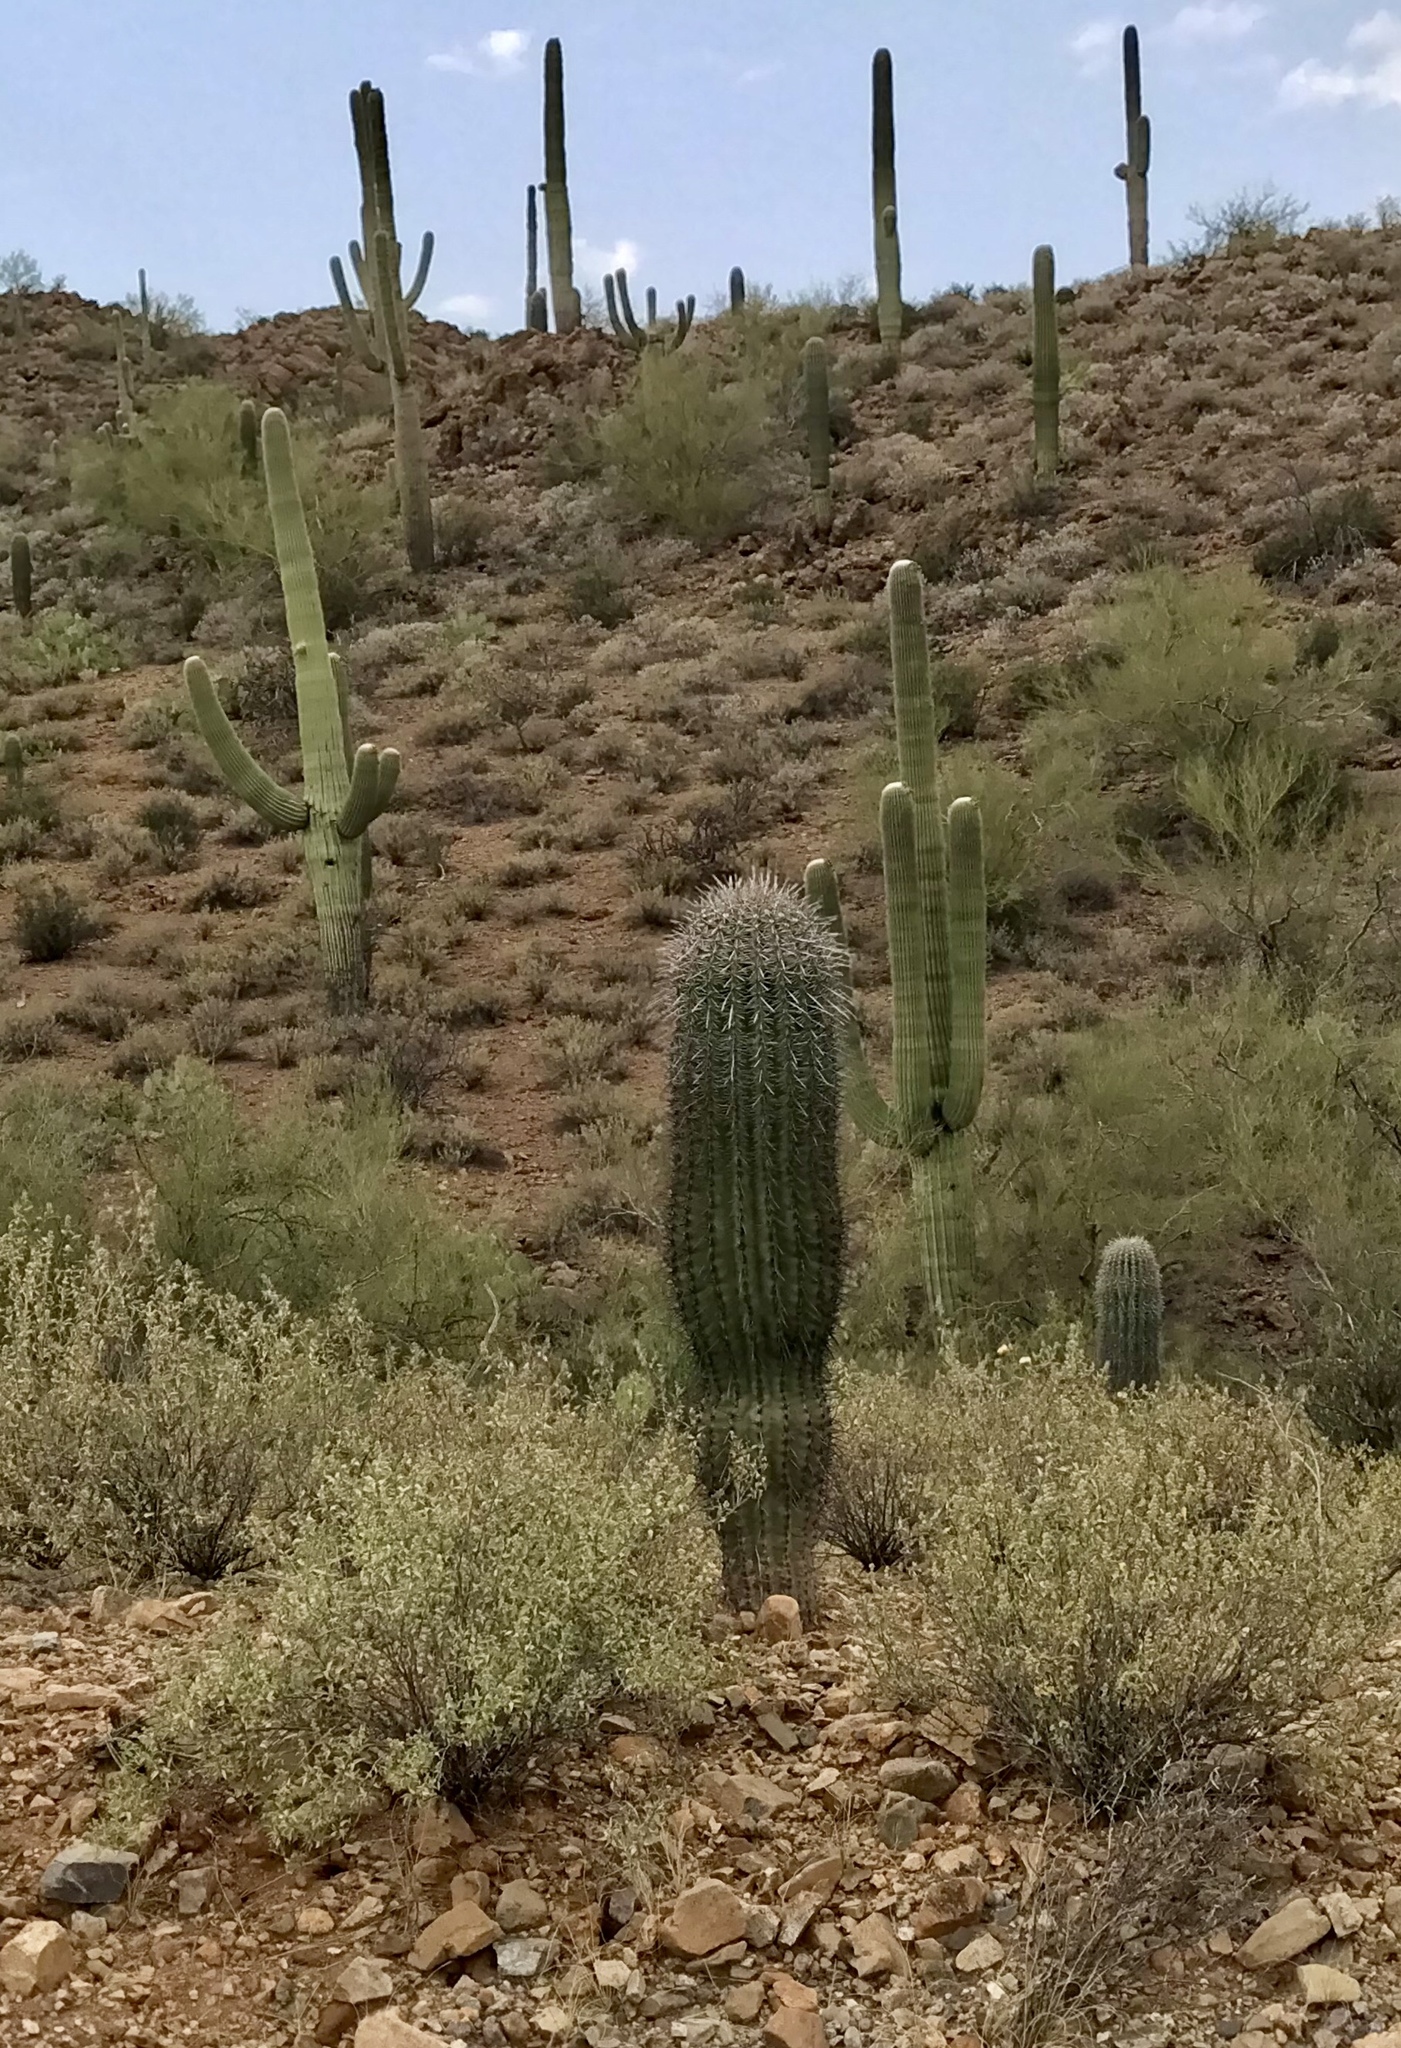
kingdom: Plantae
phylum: Tracheophyta
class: Magnoliopsida
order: Caryophyllales
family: Cactaceae
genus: Carnegiea
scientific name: Carnegiea gigantea
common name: Saguaro
